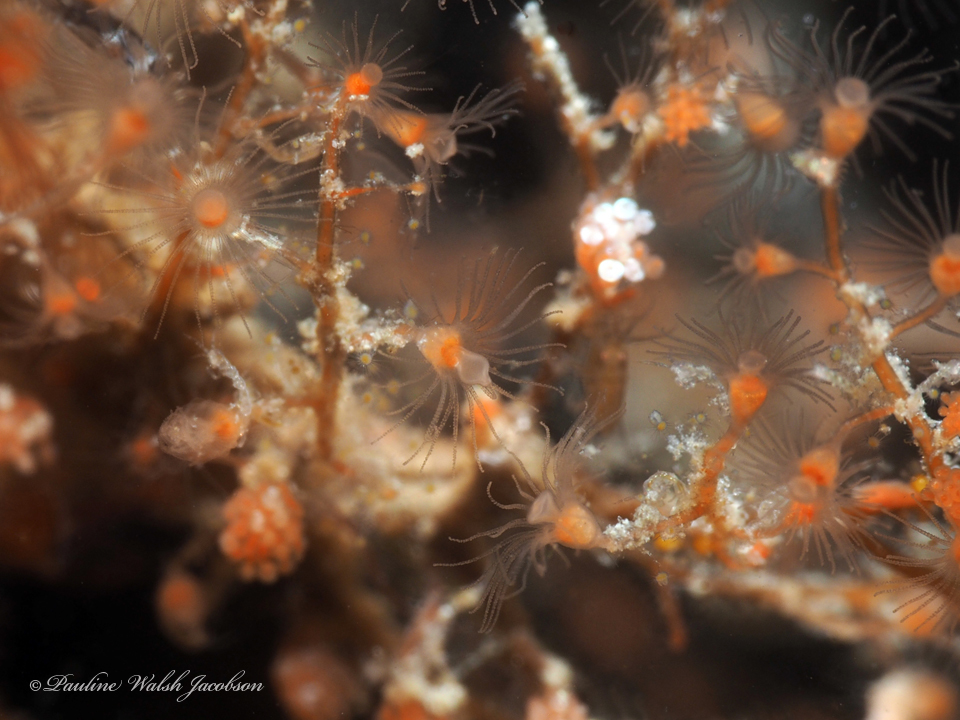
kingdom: Animalia
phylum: Cnidaria
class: Hydrozoa
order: Anthoathecata
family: Eudendriidae
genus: Eudendrium
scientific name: Eudendrium carneum
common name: Red stickhydroid
